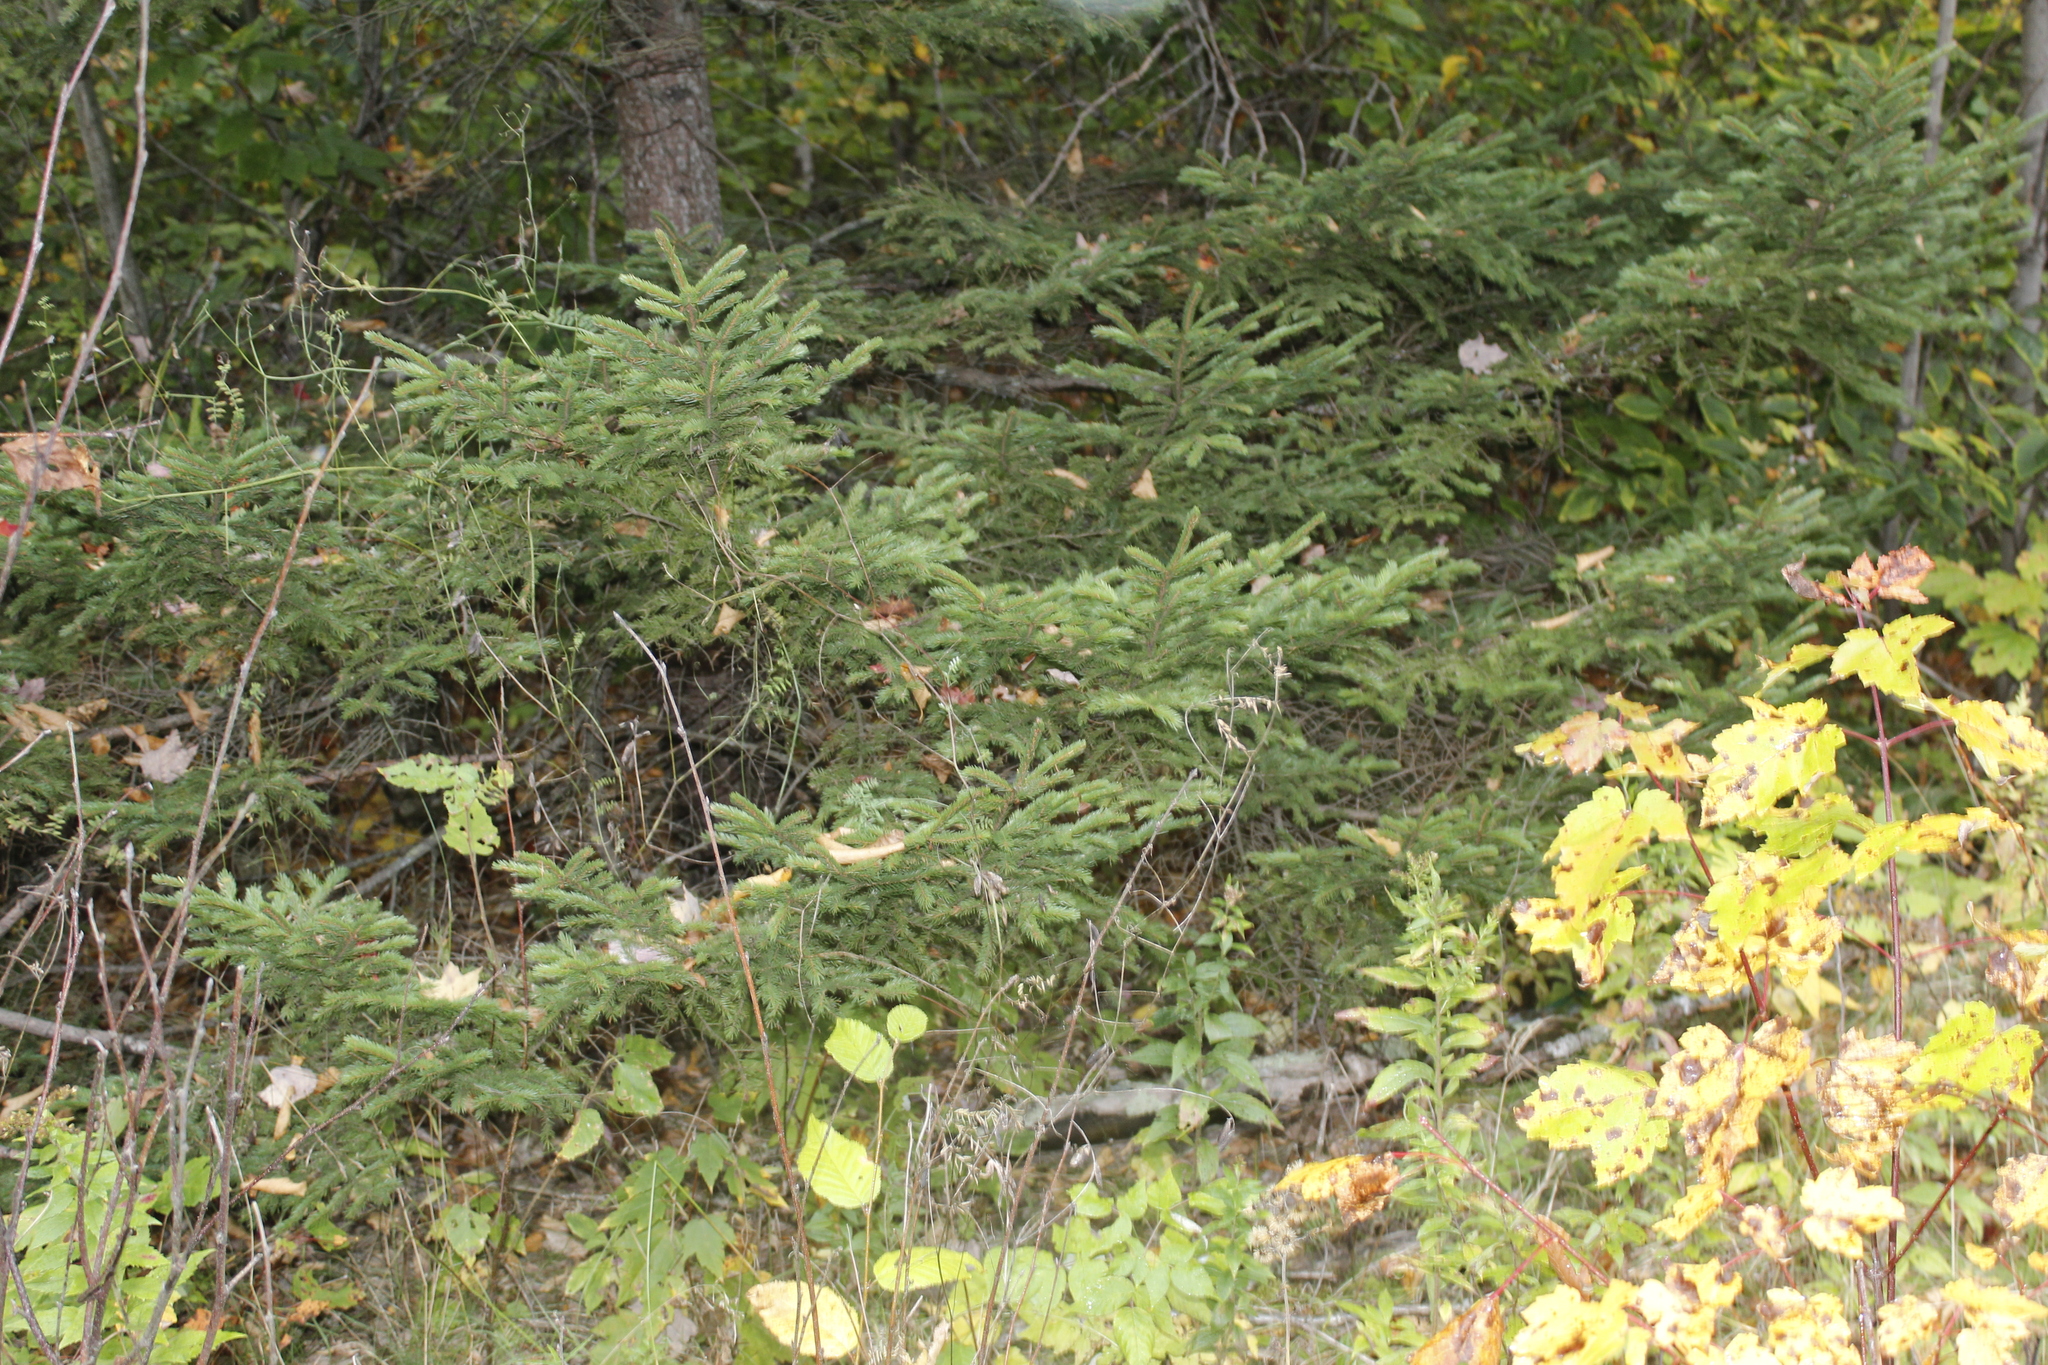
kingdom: Plantae
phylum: Tracheophyta
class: Pinopsida
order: Pinales
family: Pinaceae
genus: Abies
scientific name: Abies balsamea
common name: Balsam fir
